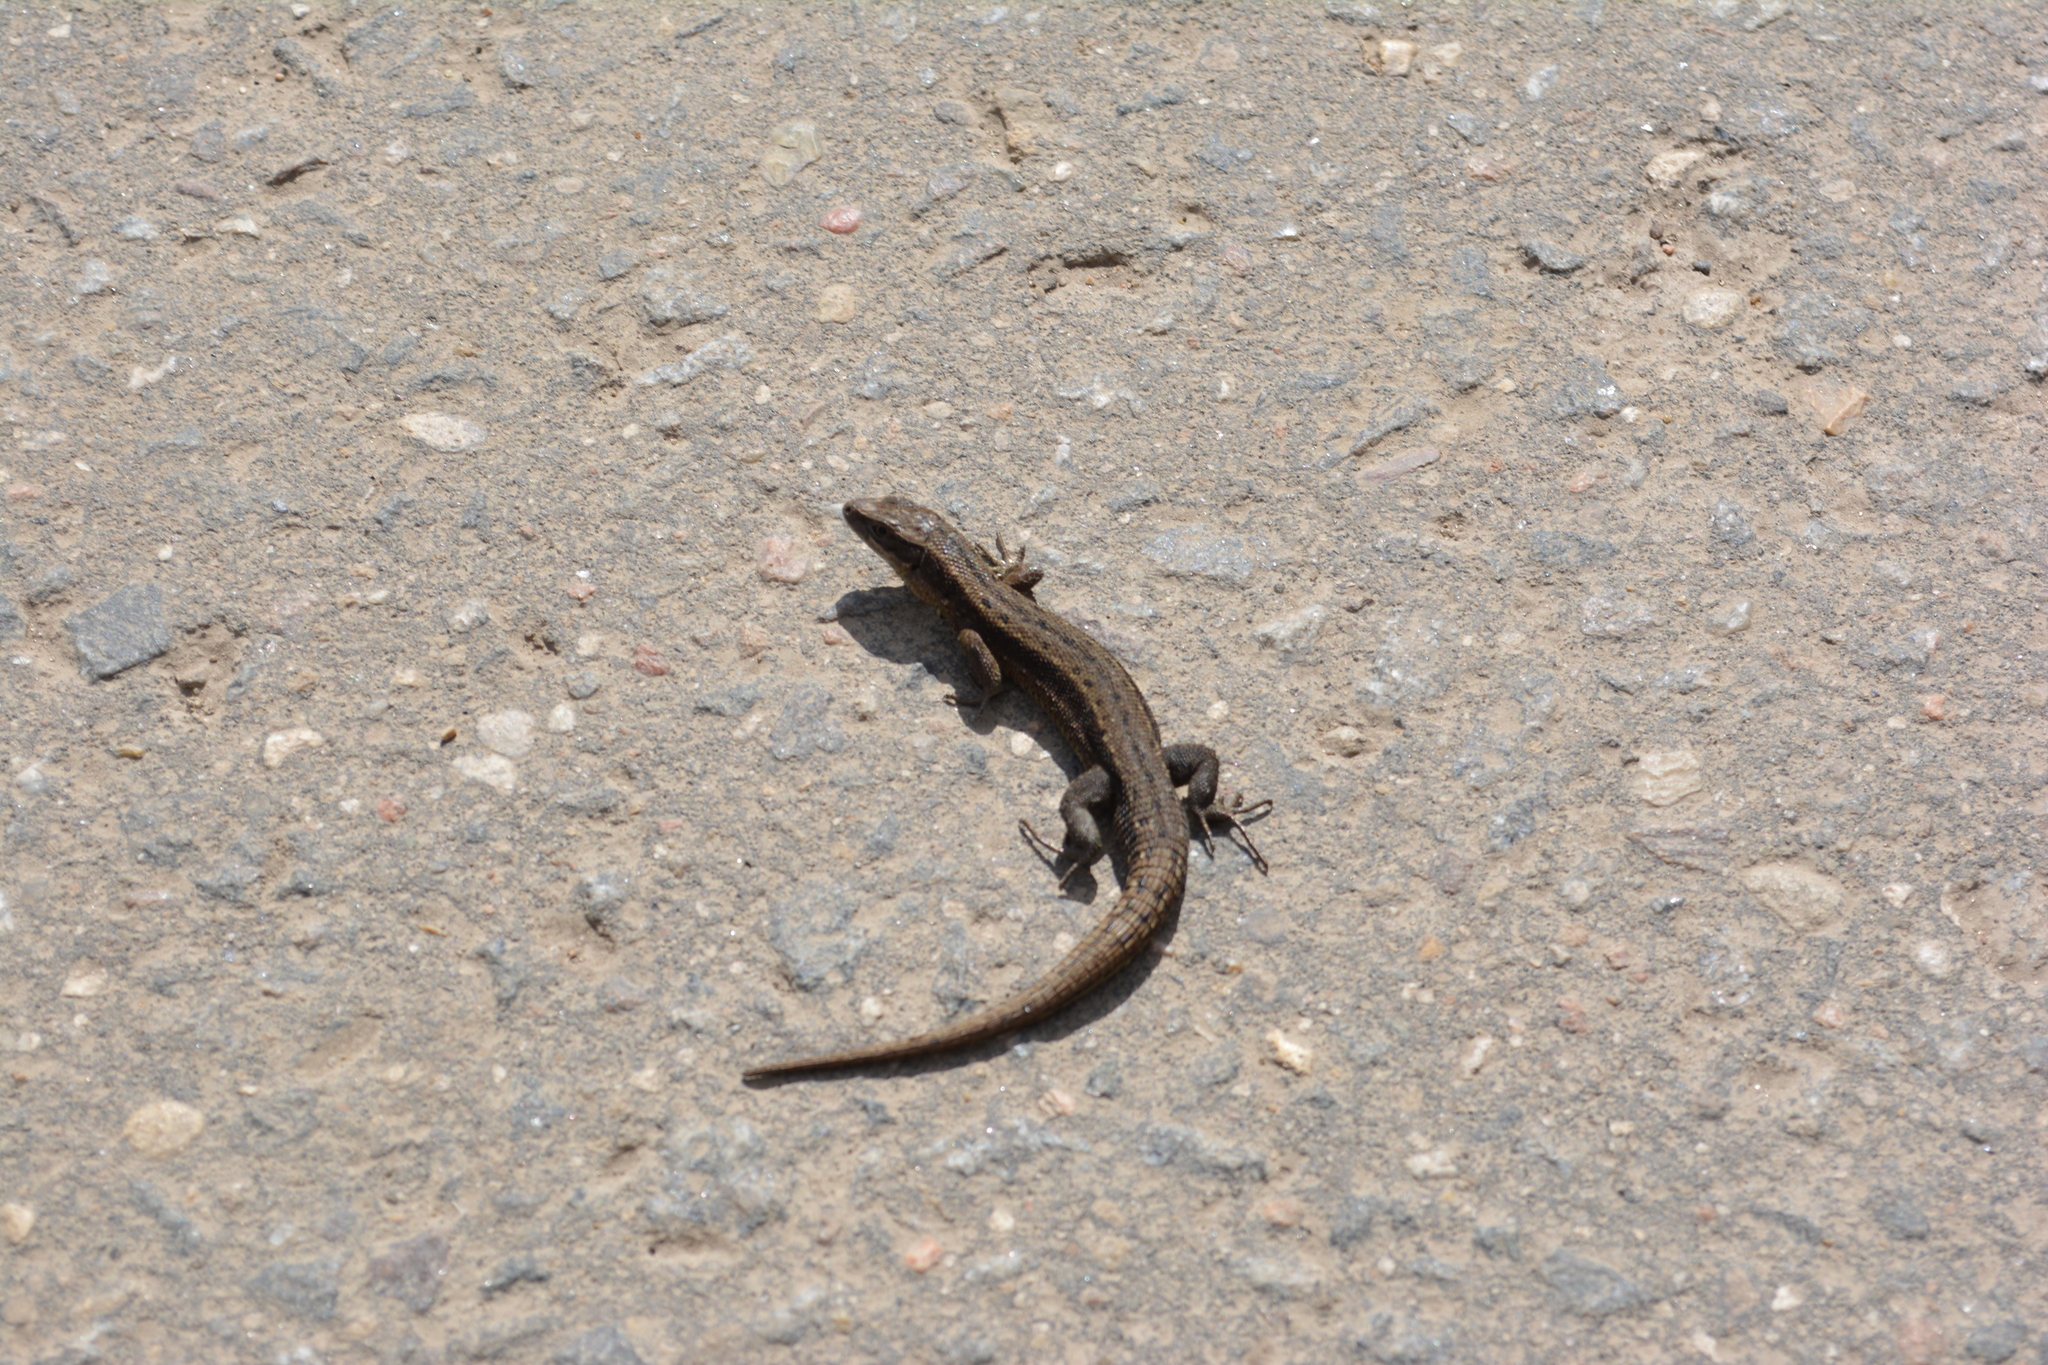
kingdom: Animalia
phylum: Chordata
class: Squamata
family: Lacertidae
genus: Zootoca
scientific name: Zootoca vivipara
